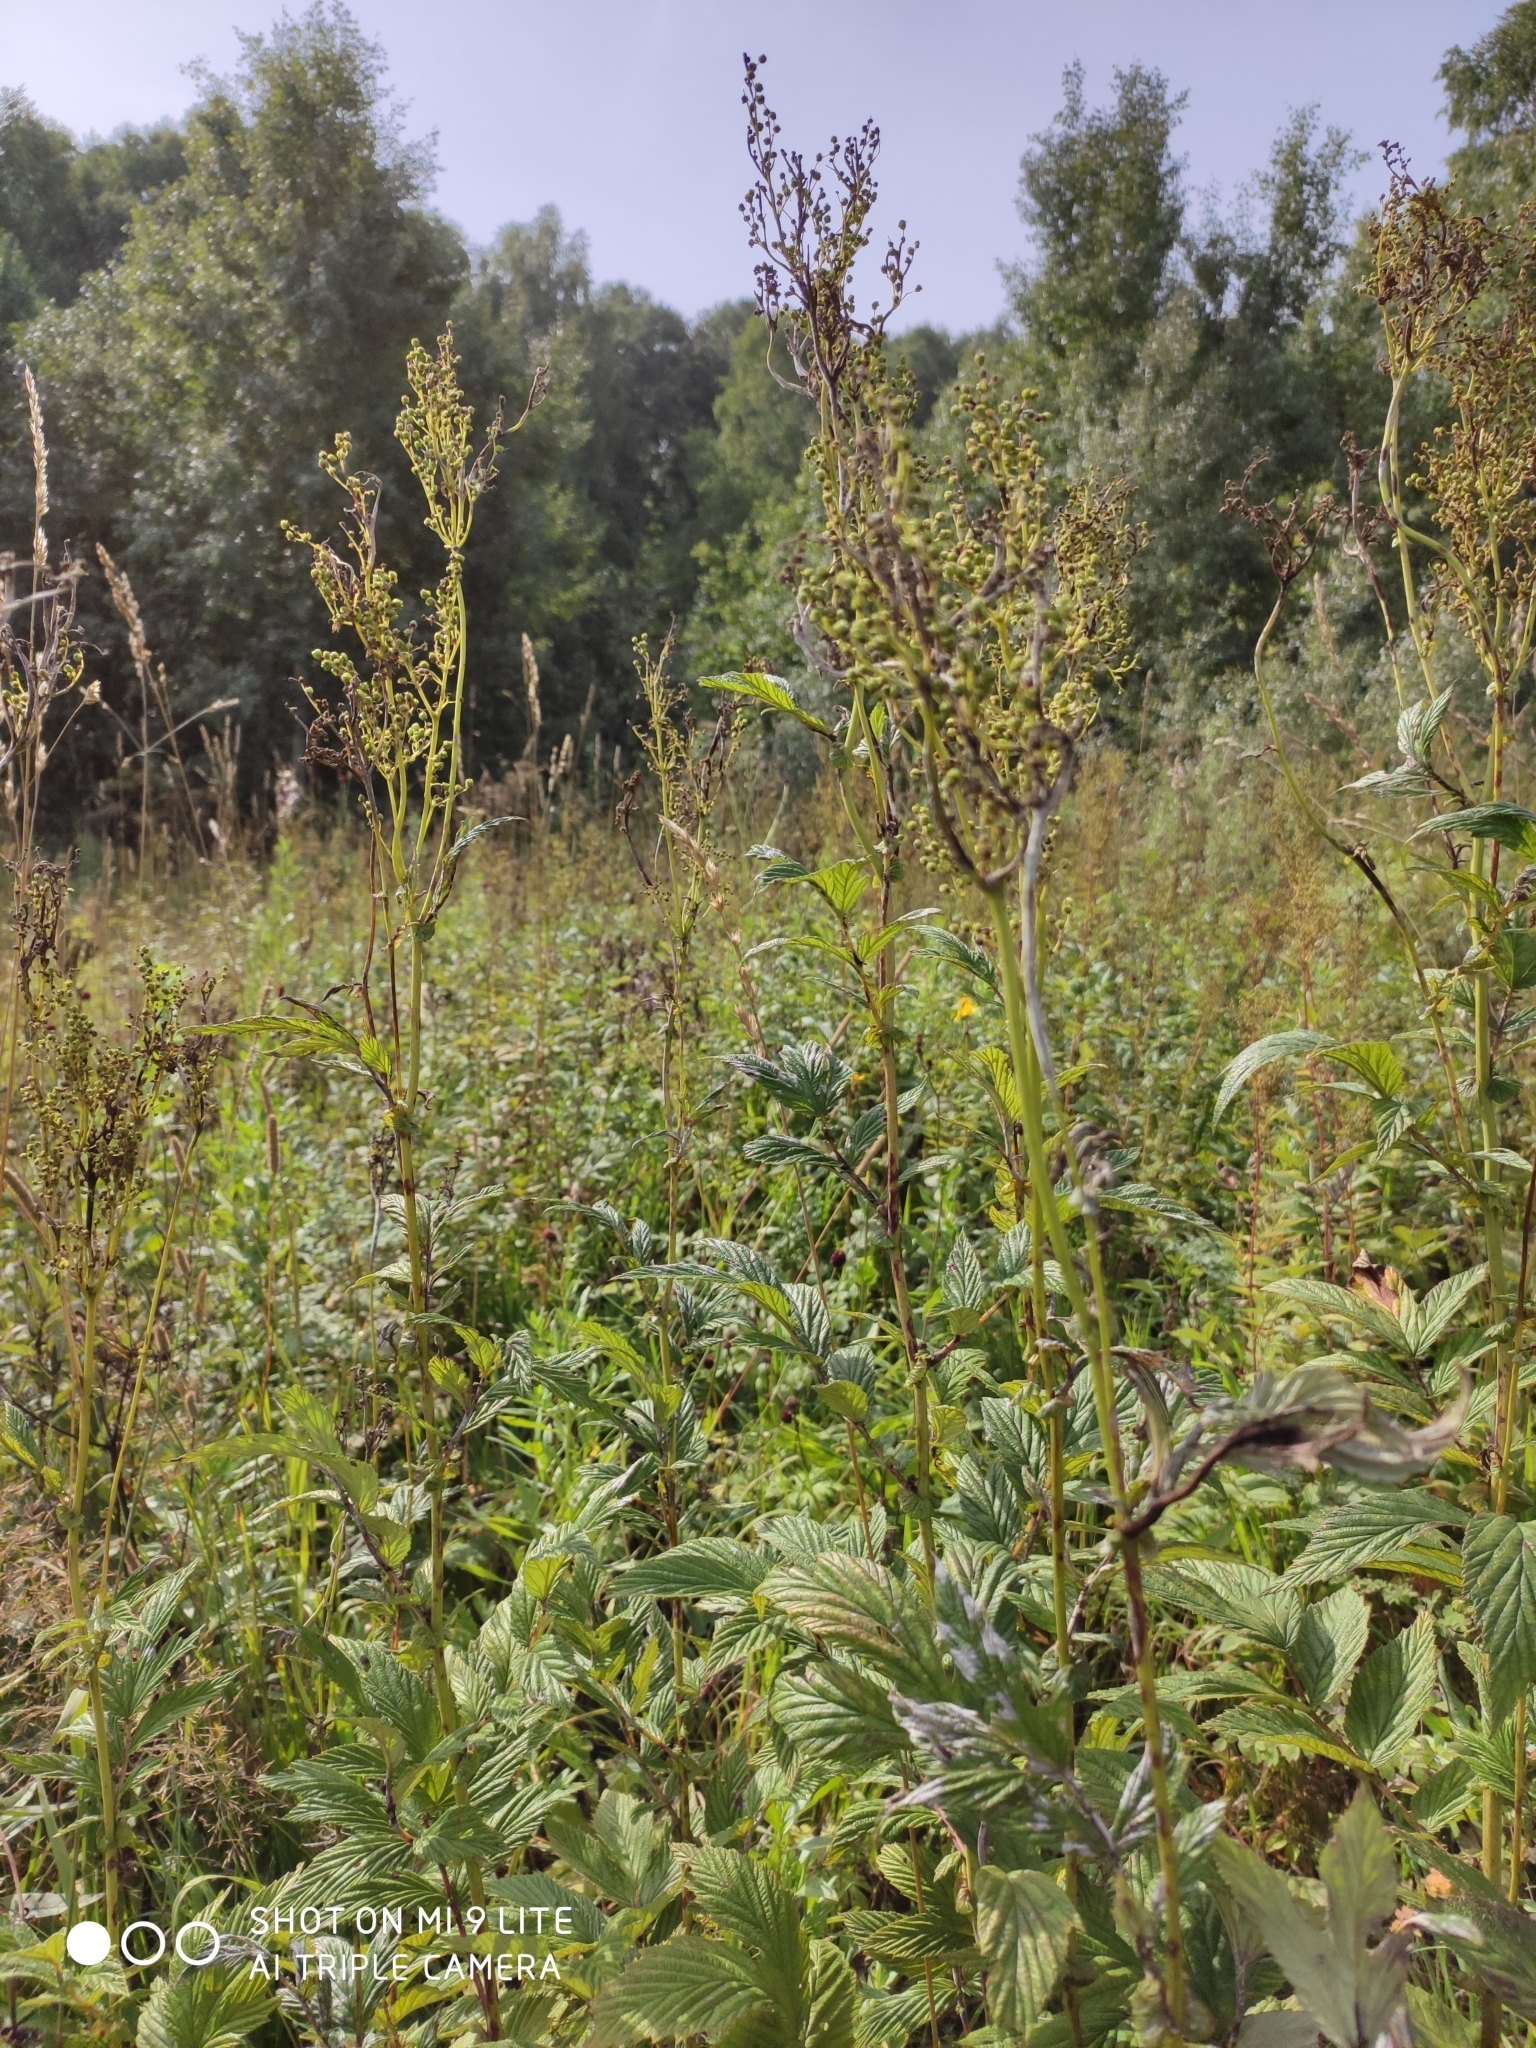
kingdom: Plantae
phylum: Tracheophyta
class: Magnoliopsida
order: Rosales
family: Rosaceae
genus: Filipendula
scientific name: Filipendula ulmaria
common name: Meadowsweet
